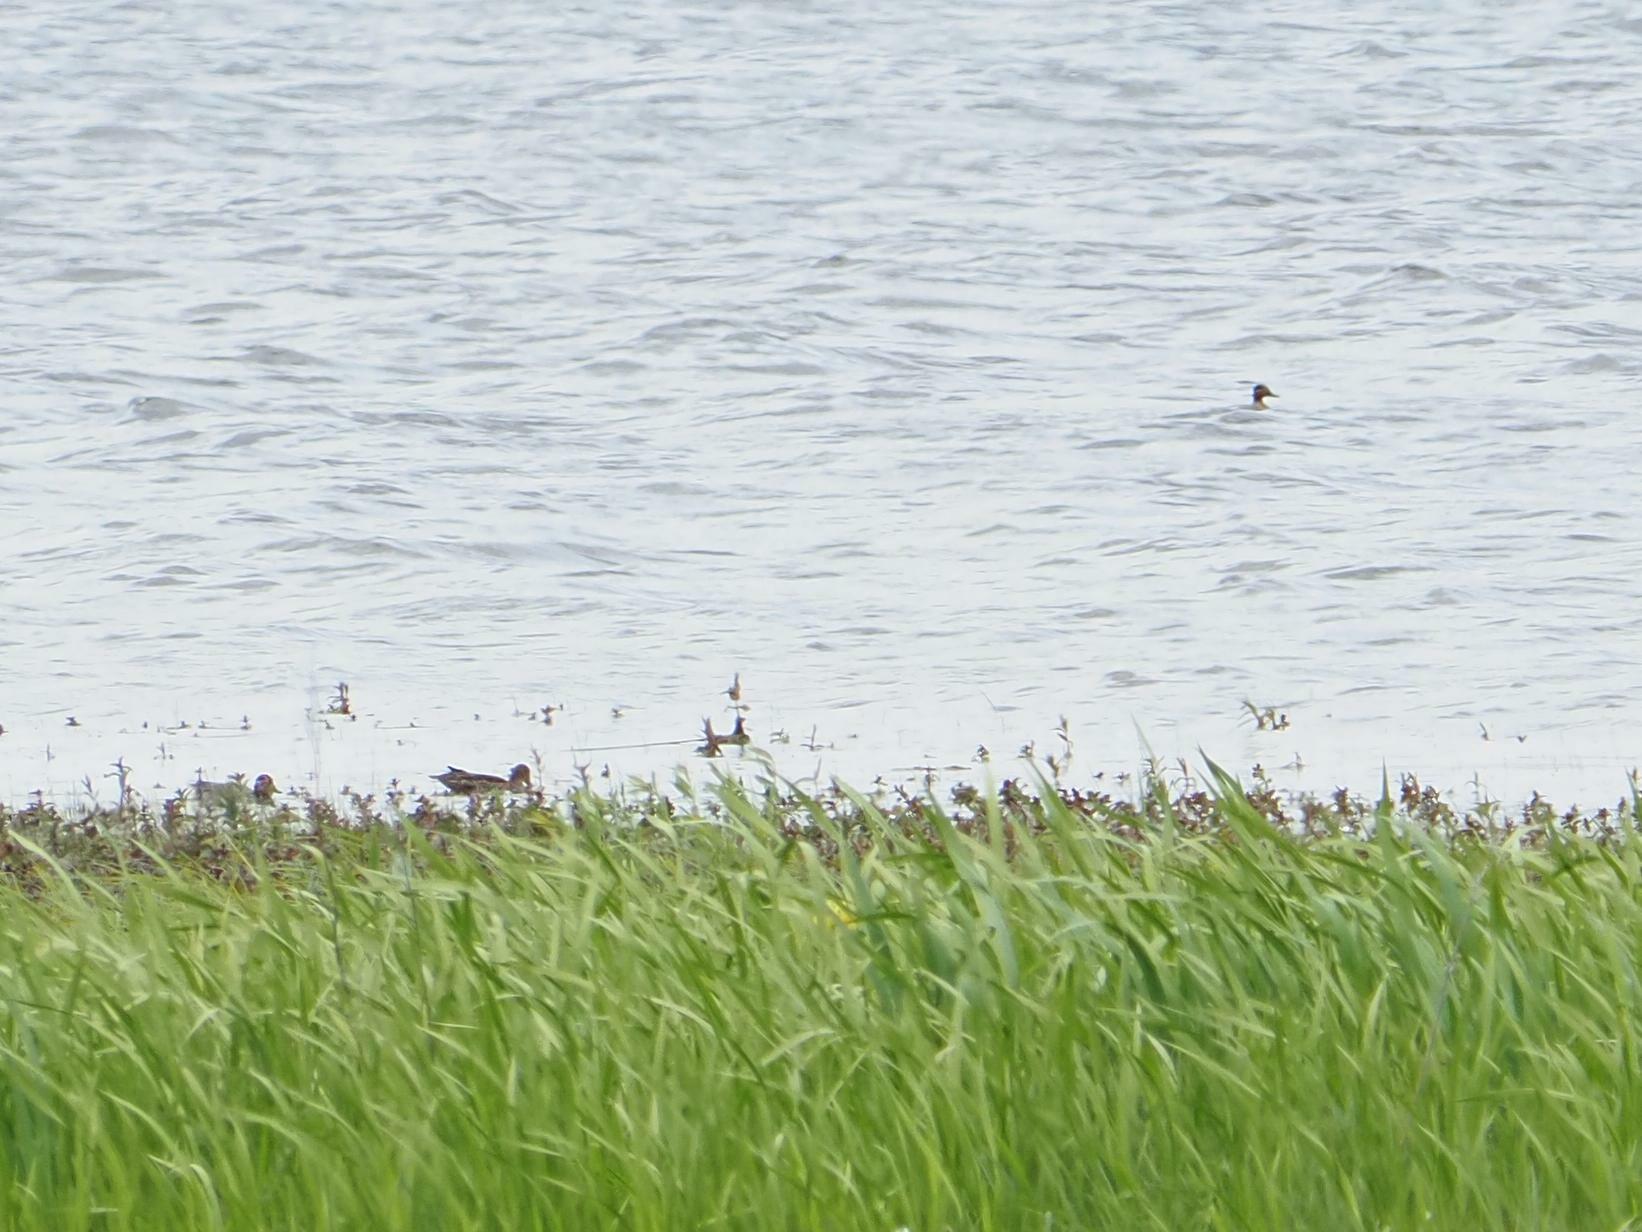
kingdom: Animalia
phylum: Chordata
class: Aves
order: Anseriformes
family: Anatidae
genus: Anas
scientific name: Anas crecca
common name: Eurasian teal
